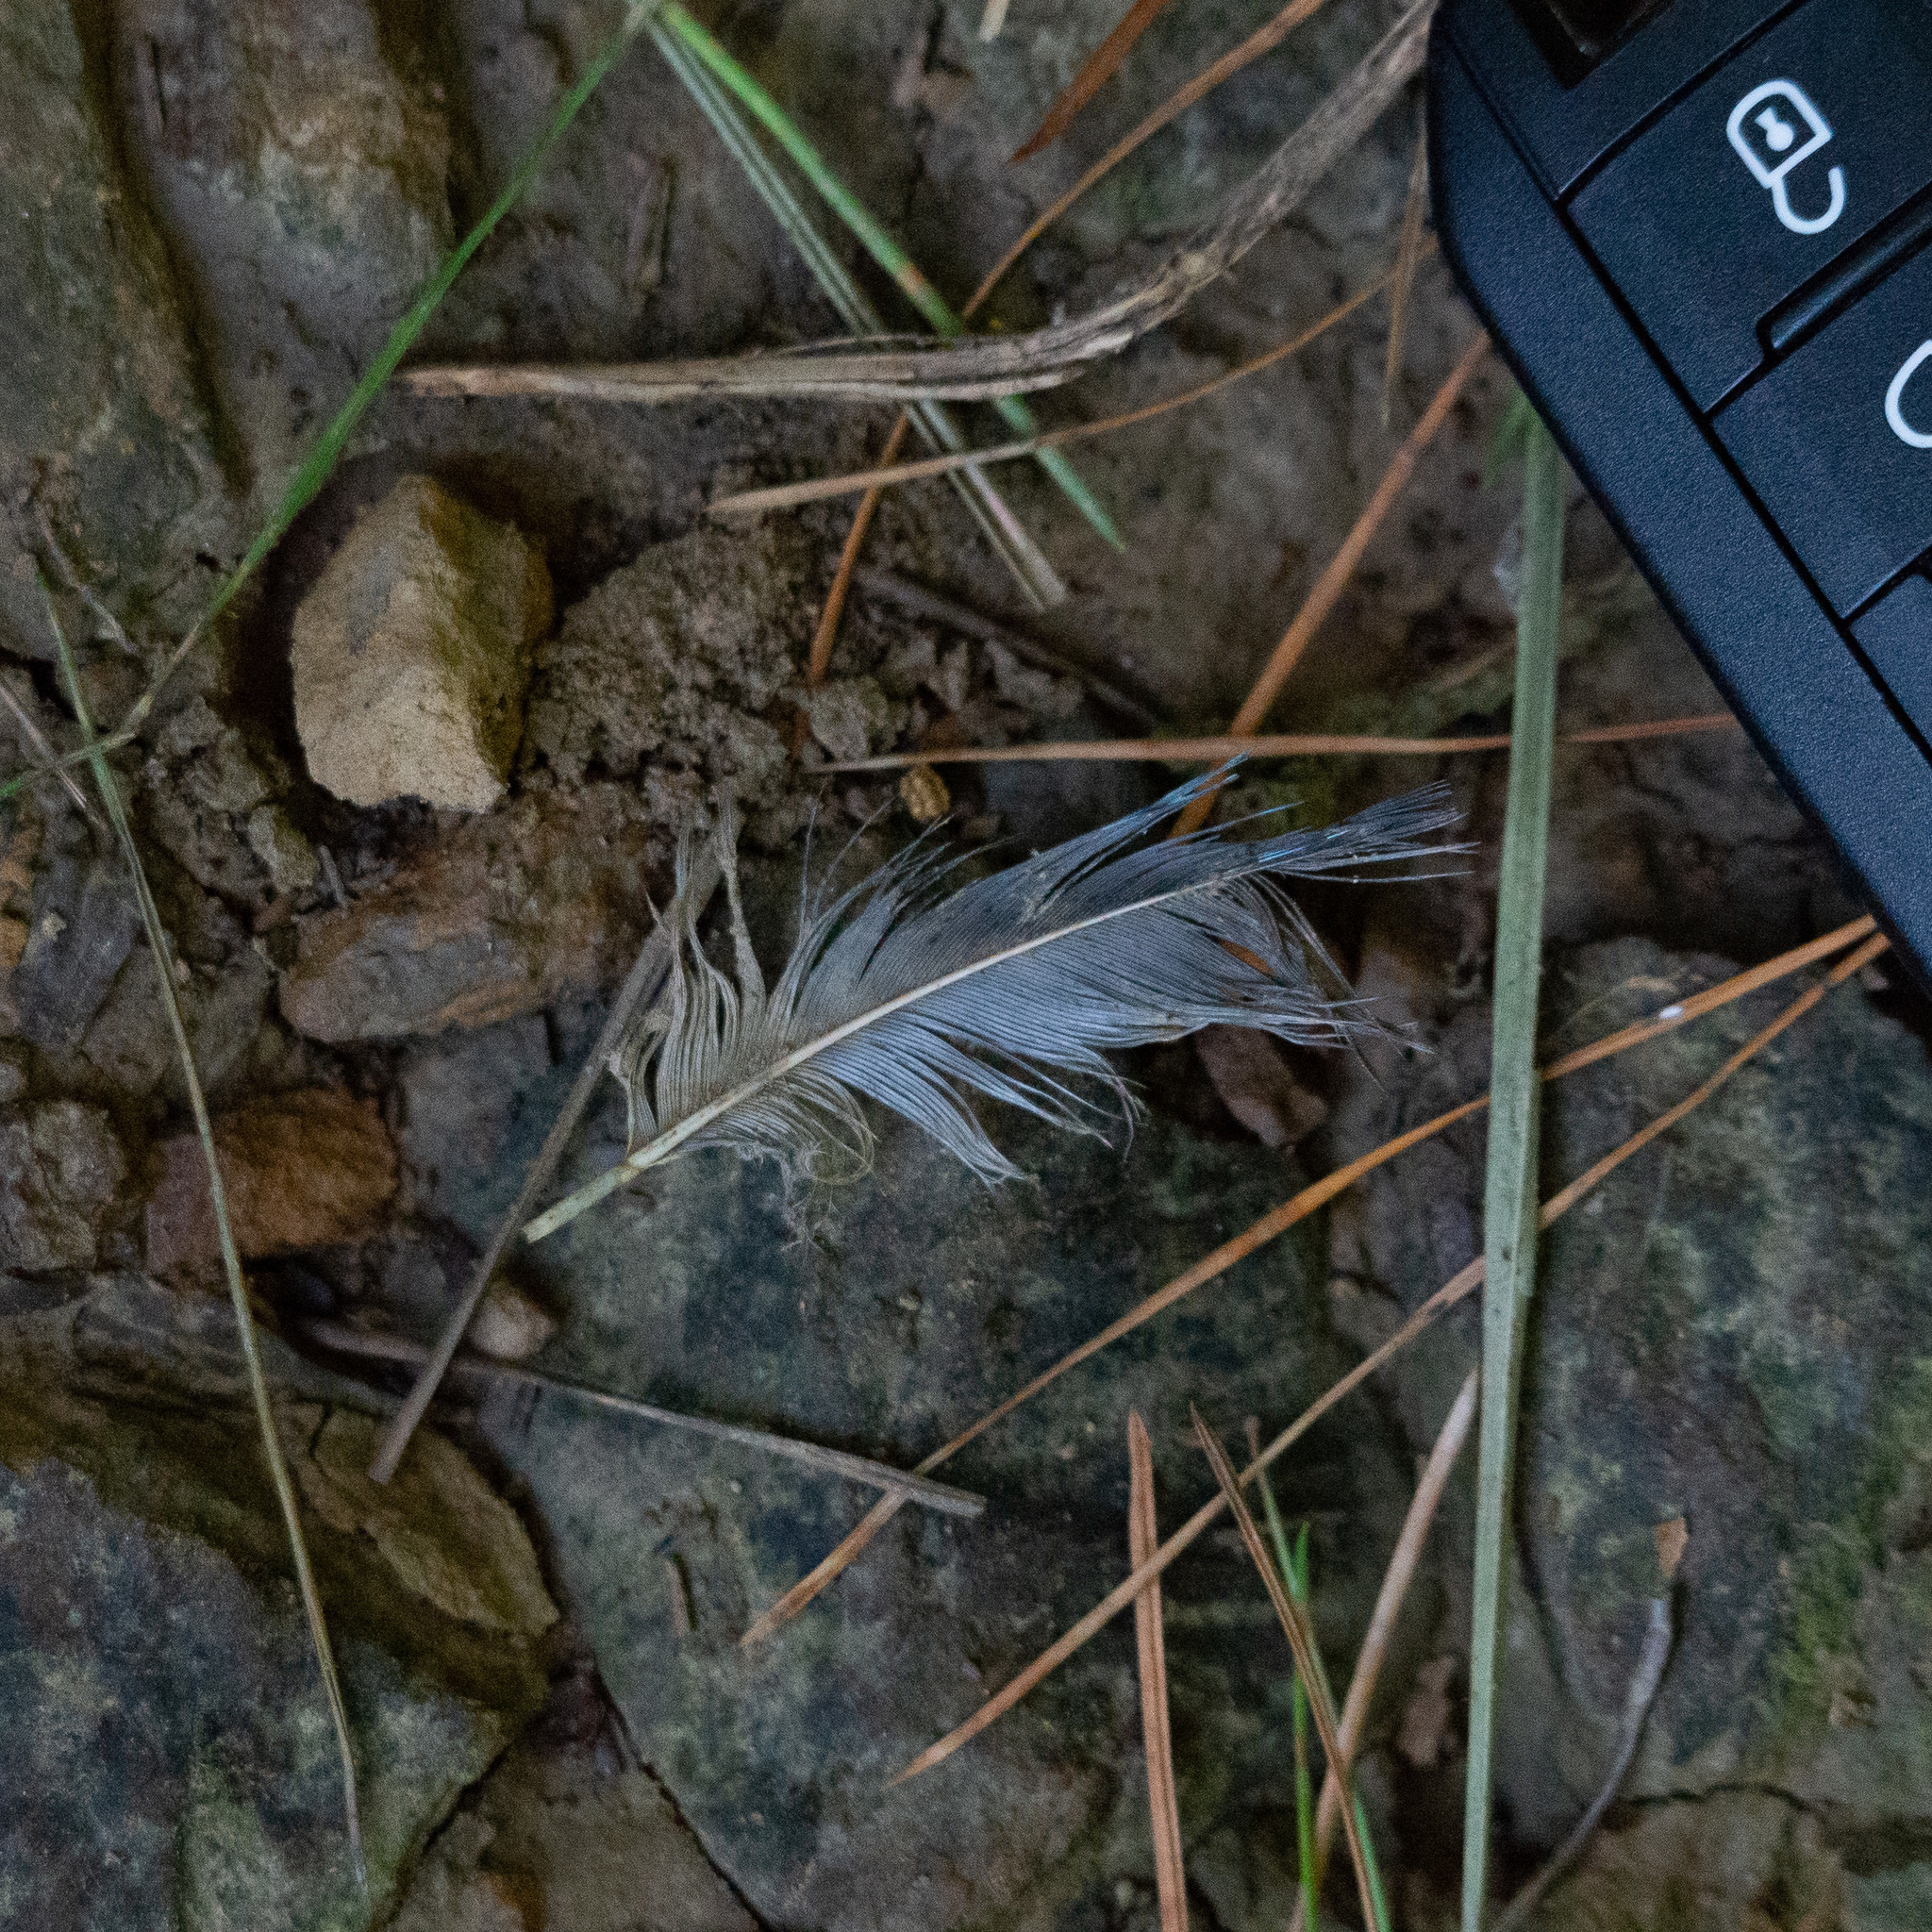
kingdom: Animalia
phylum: Chordata
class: Aves
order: Passeriformes
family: Corvidae
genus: Garrulus
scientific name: Garrulus glandarius
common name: Eurasian jay
